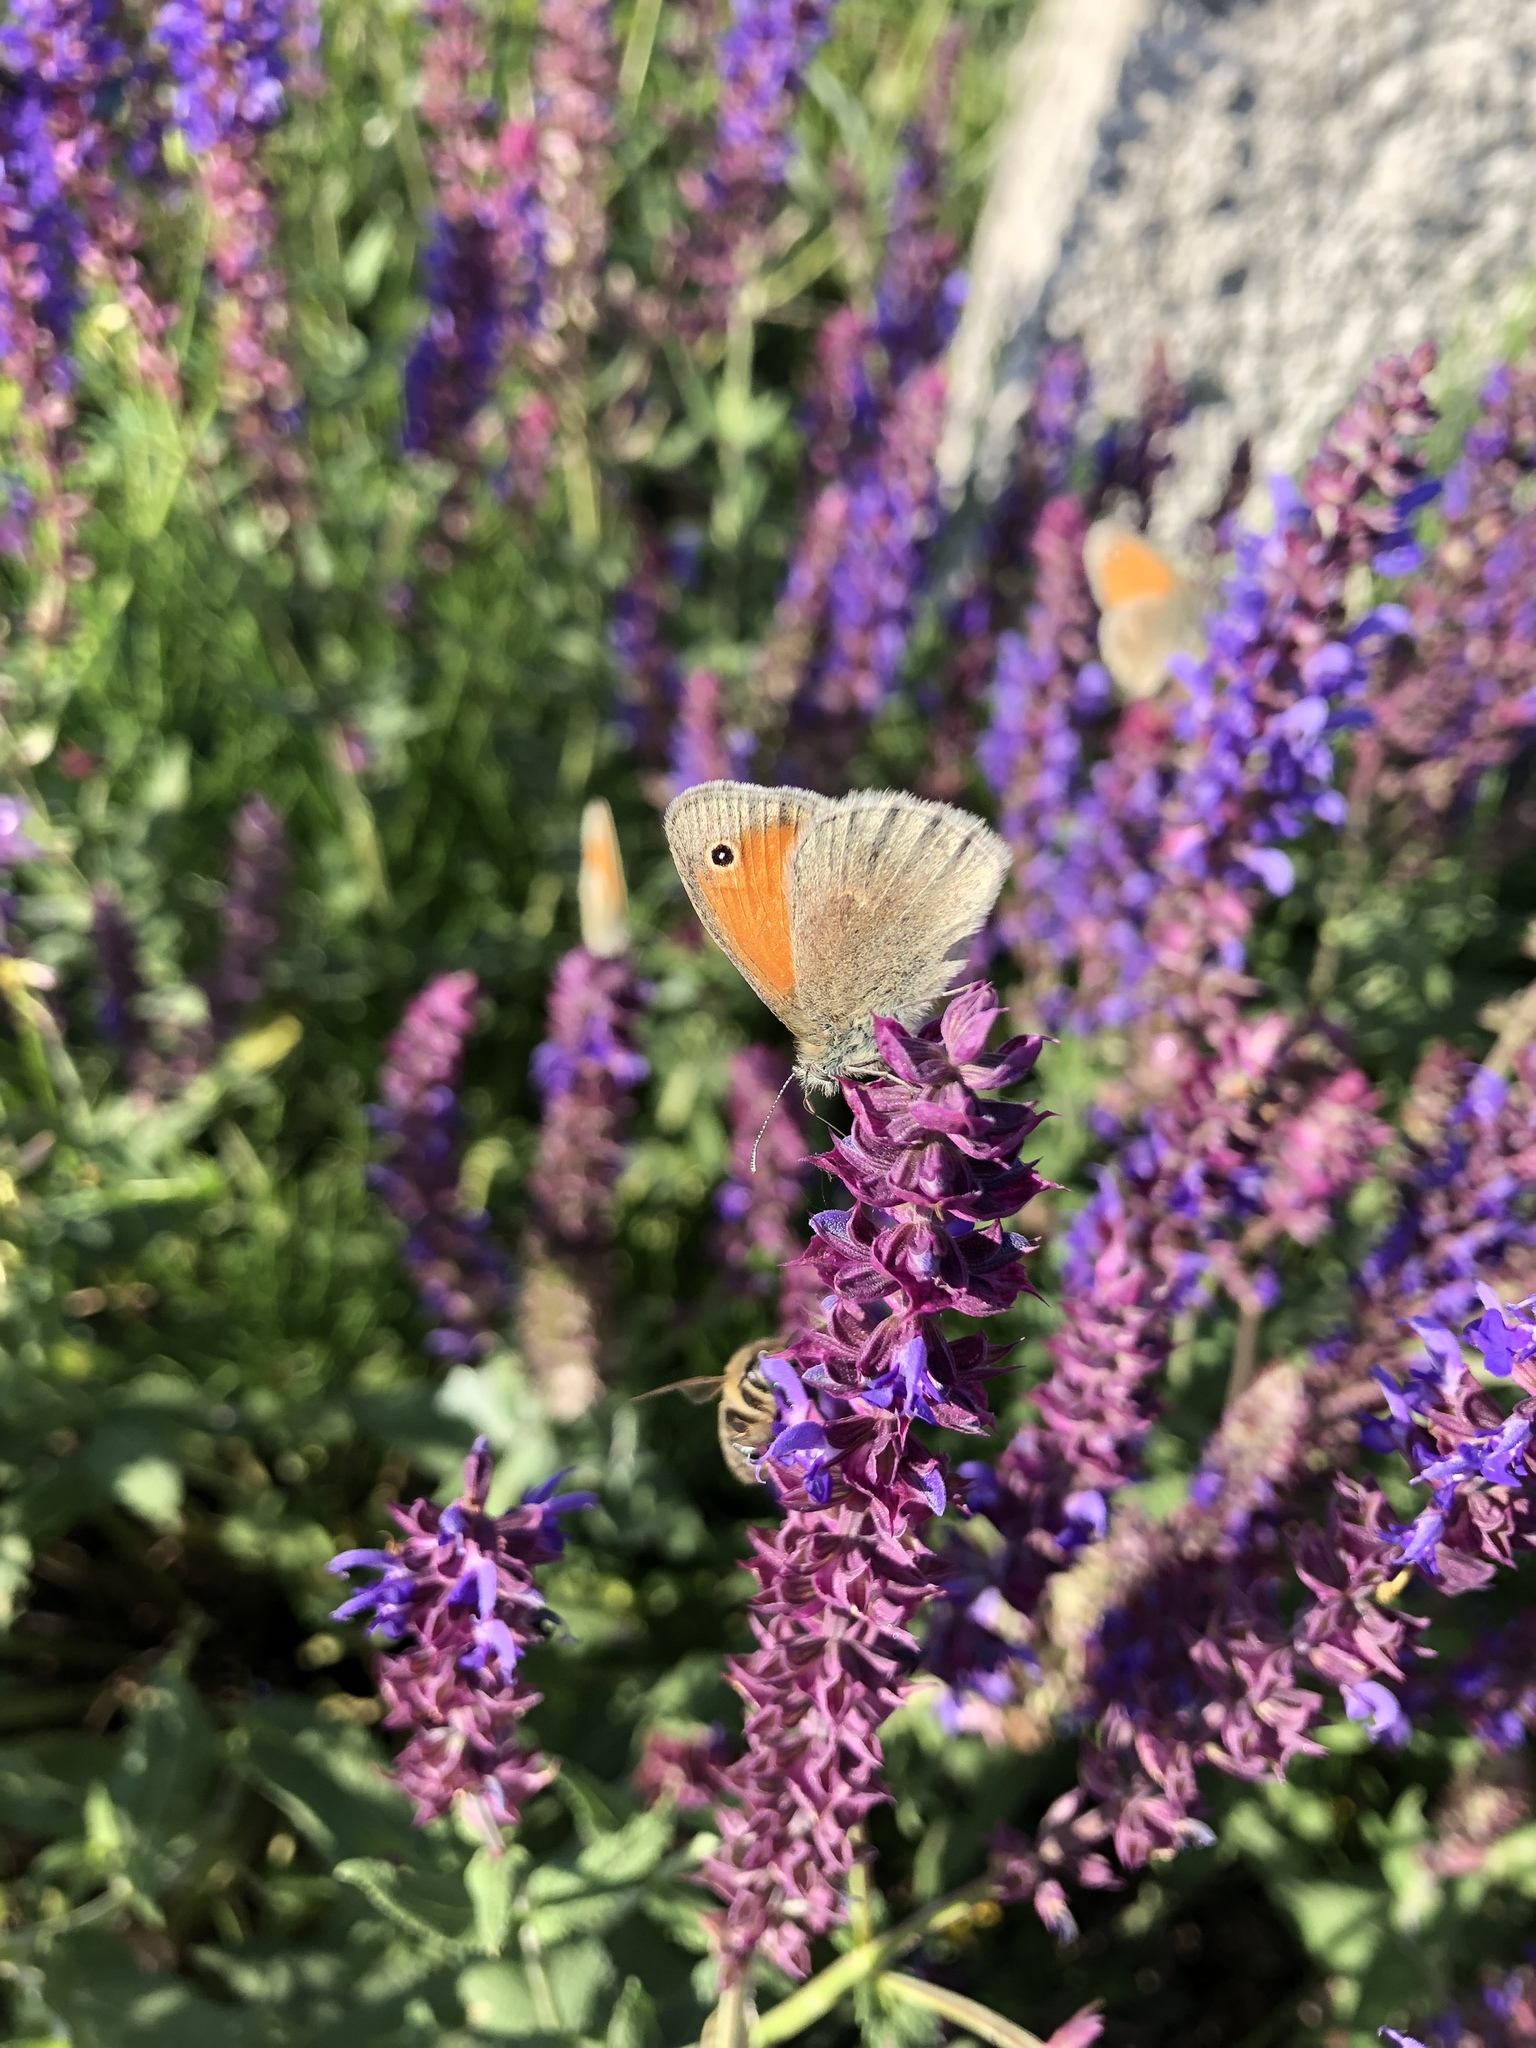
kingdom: Animalia
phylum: Arthropoda
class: Insecta
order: Lepidoptera
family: Nymphalidae
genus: Coenonympha
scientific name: Coenonympha pamphilus
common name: Small heath
